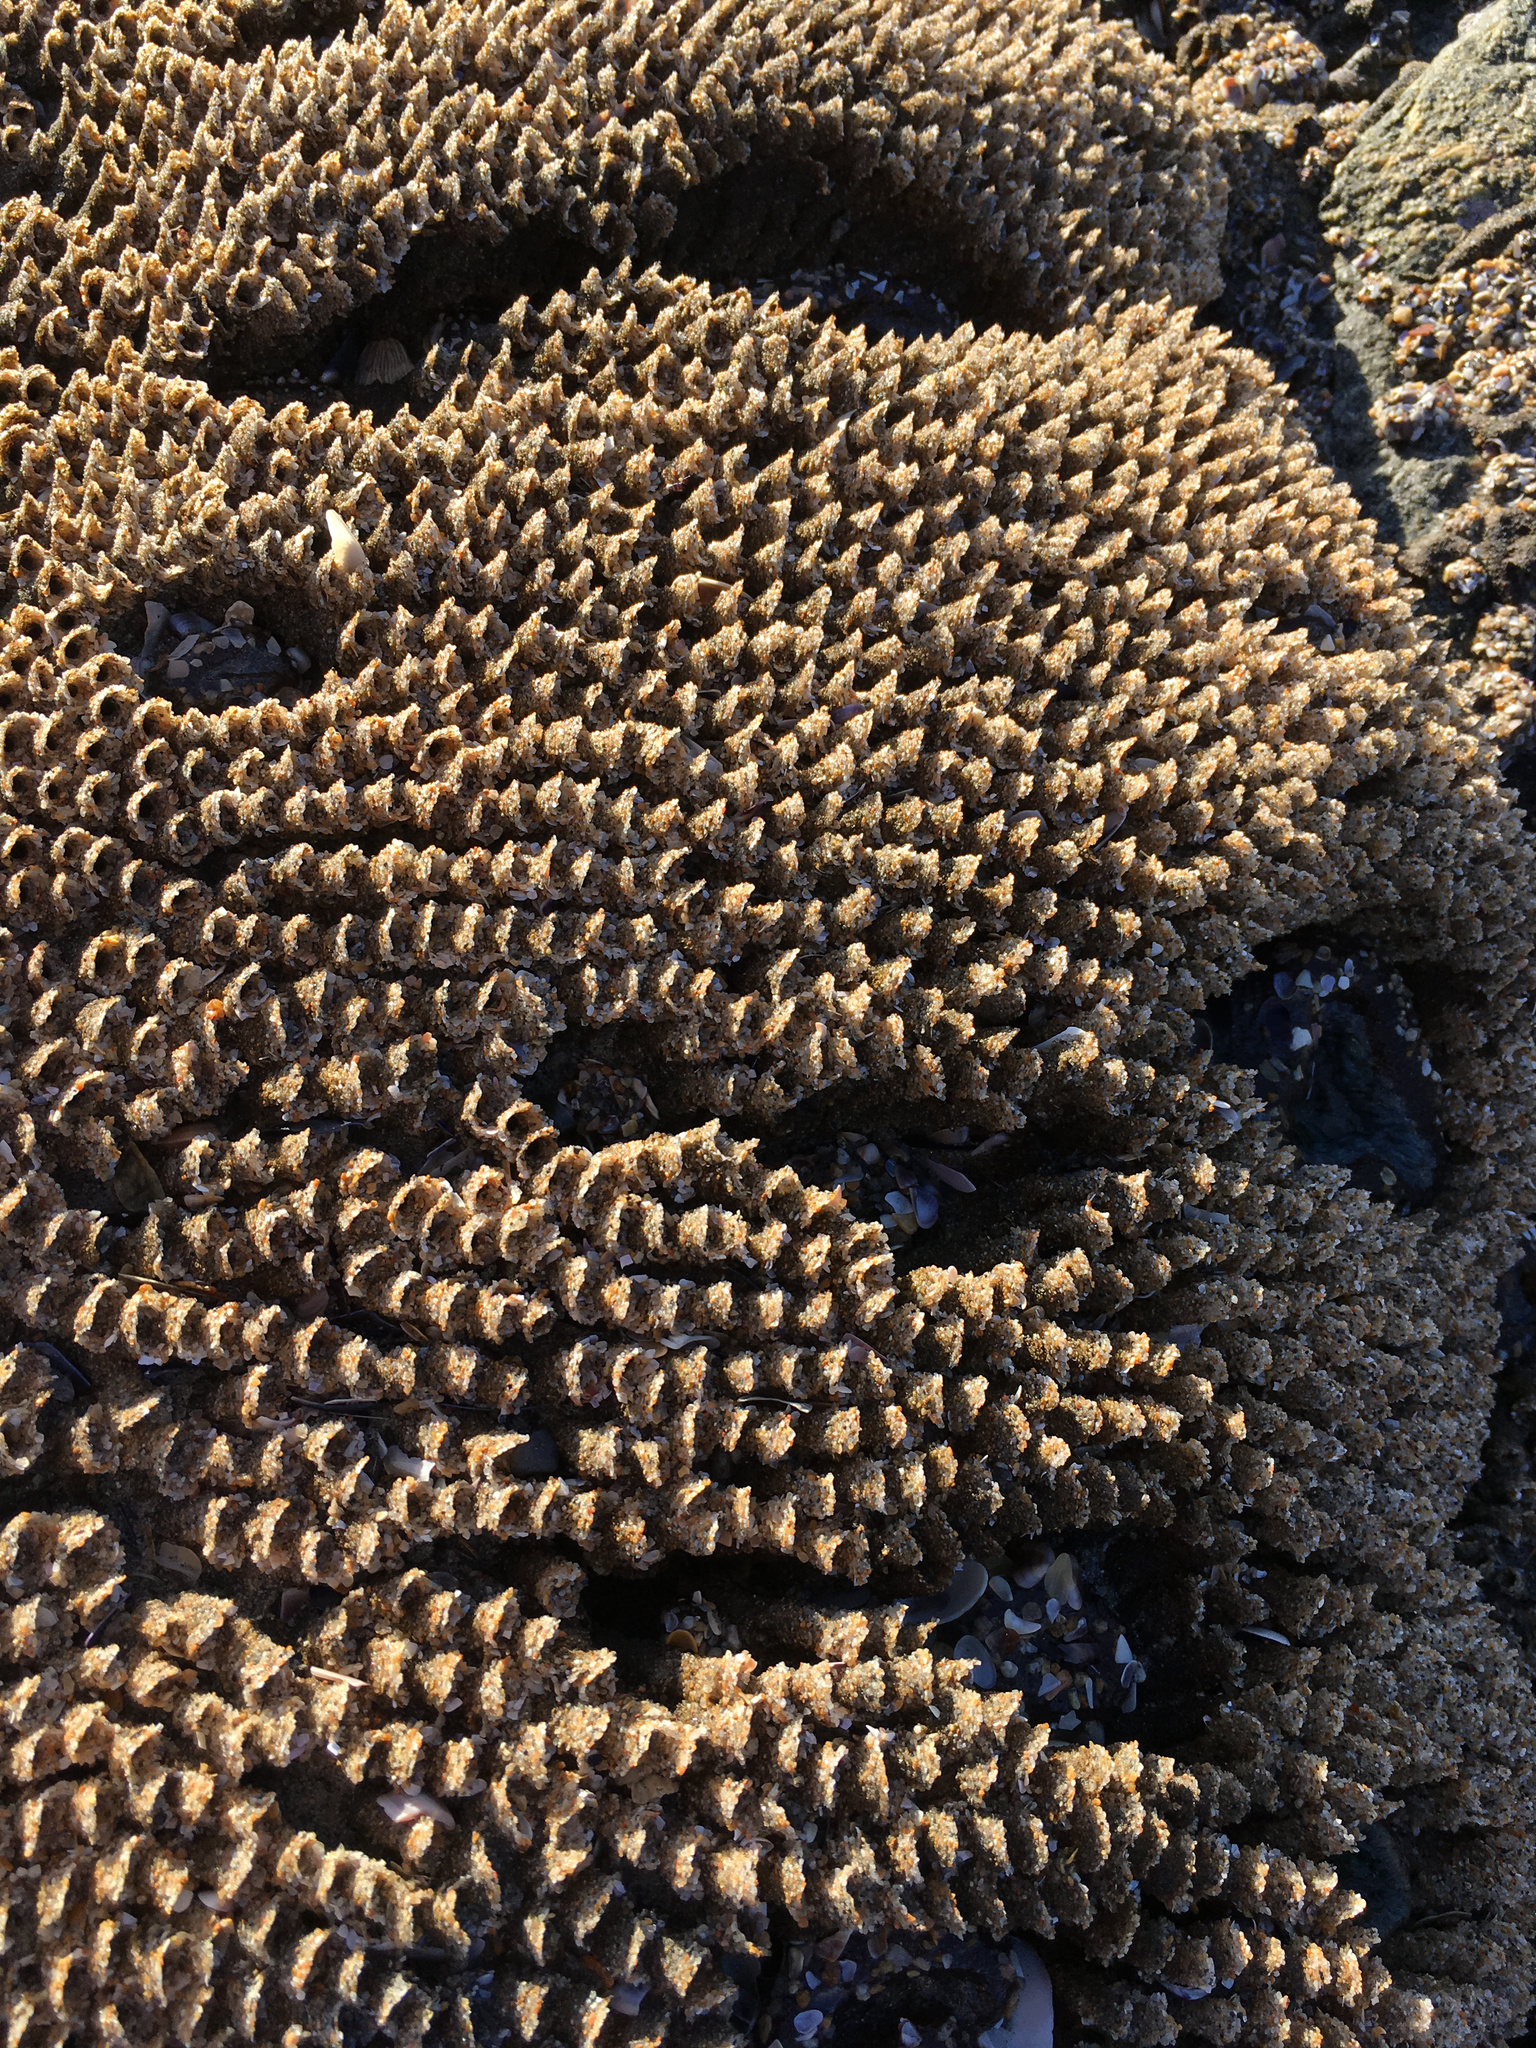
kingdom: Animalia
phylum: Annelida
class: Polychaeta
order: Sabellida
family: Sabellariidae
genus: Phragmatopoma
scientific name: Phragmatopoma californica
